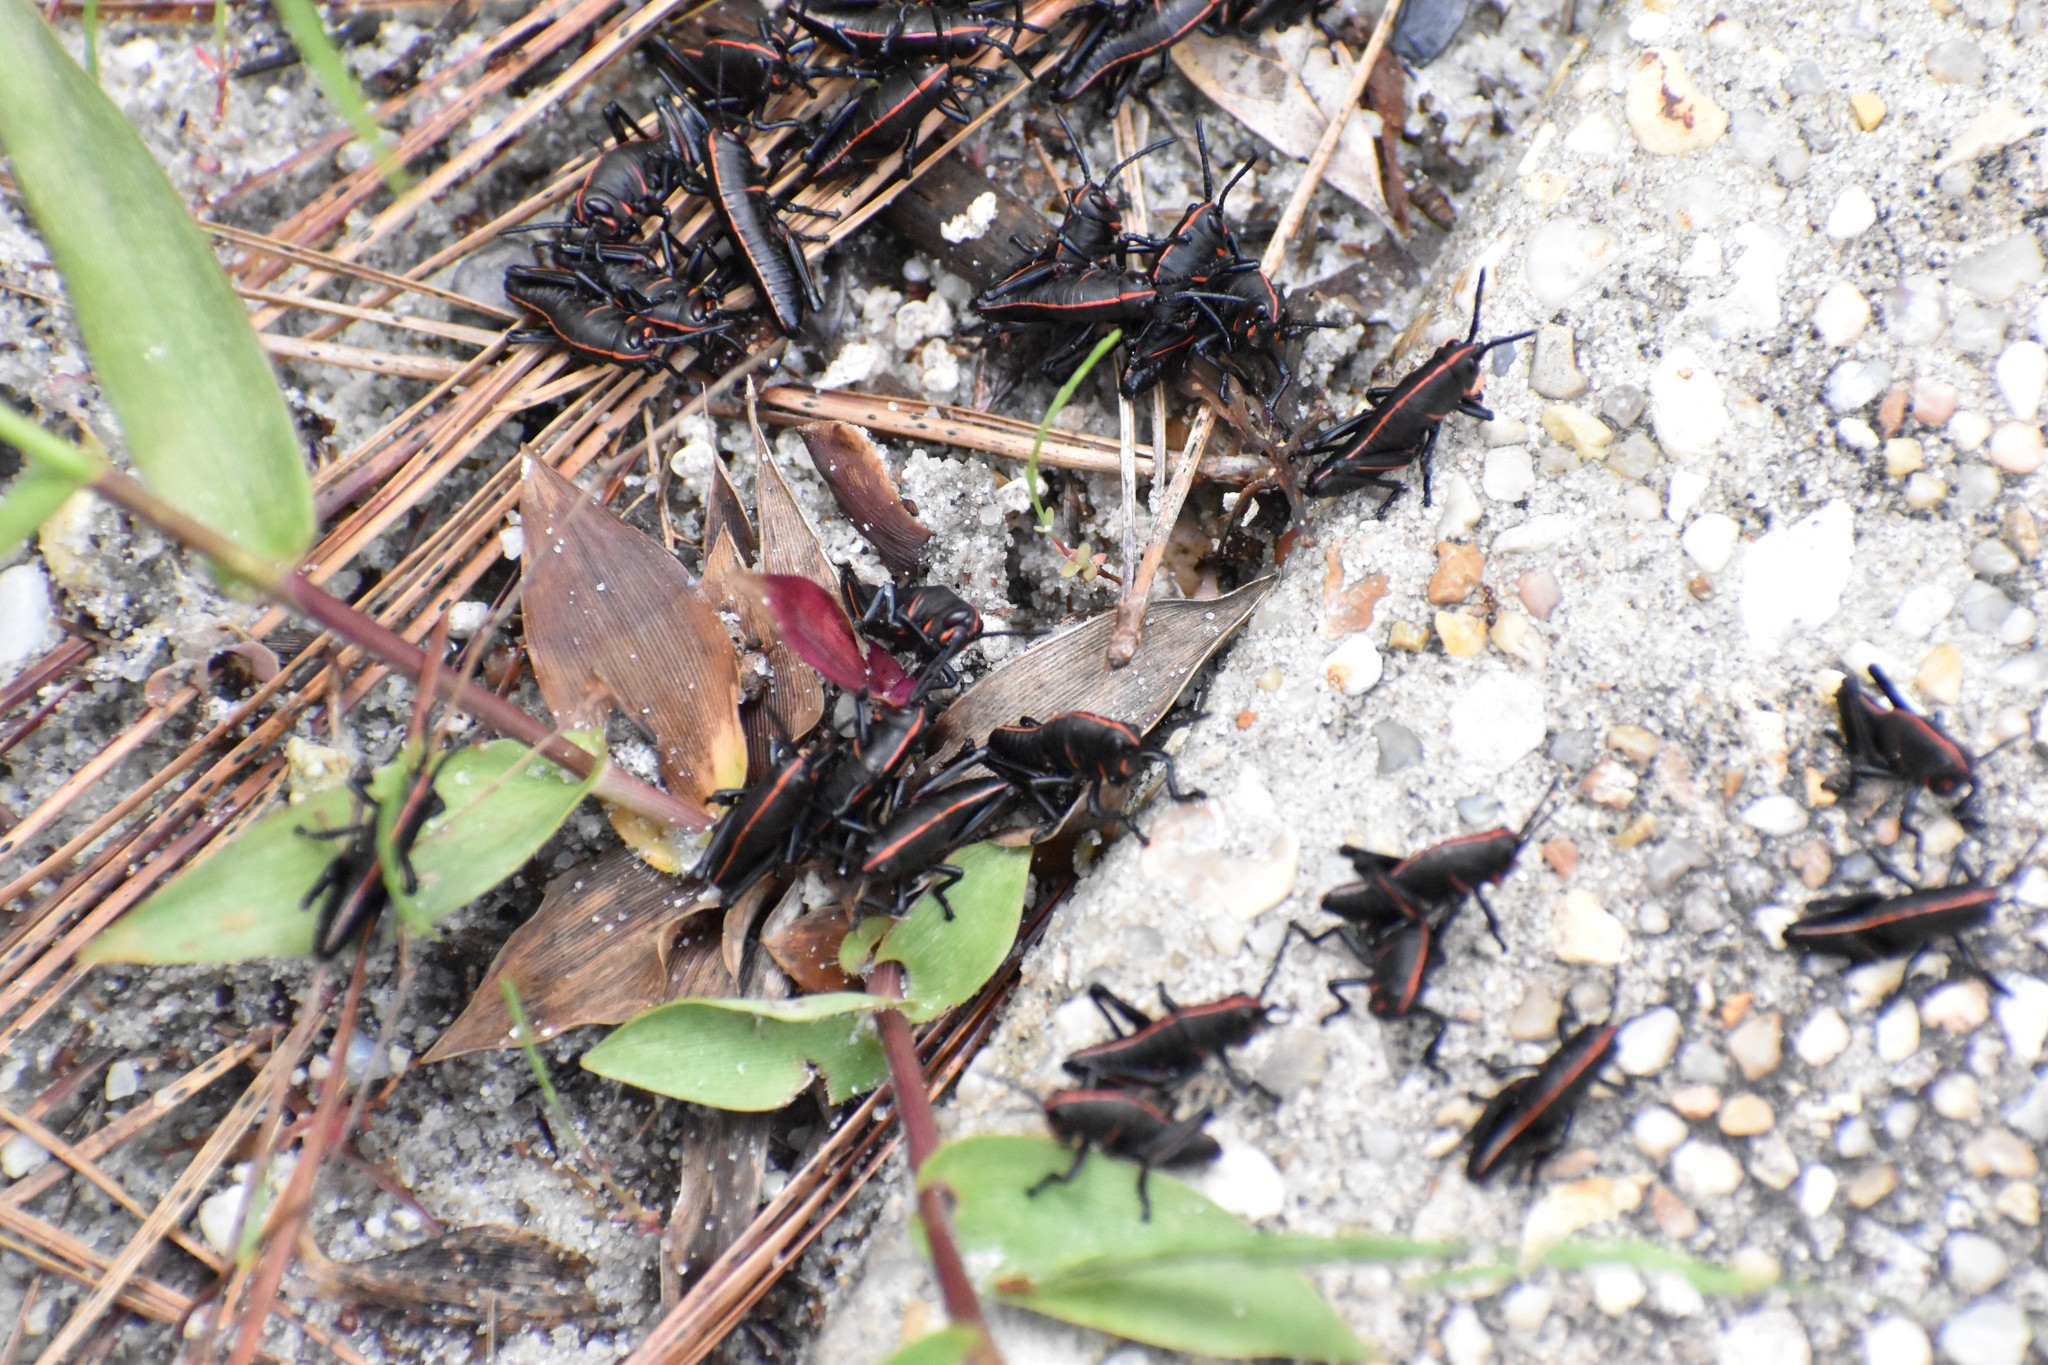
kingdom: Animalia
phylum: Arthropoda
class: Insecta
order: Orthoptera
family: Romaleidae
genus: Romalea
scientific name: Romalea microptera
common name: Eastern lubber grasshopper
